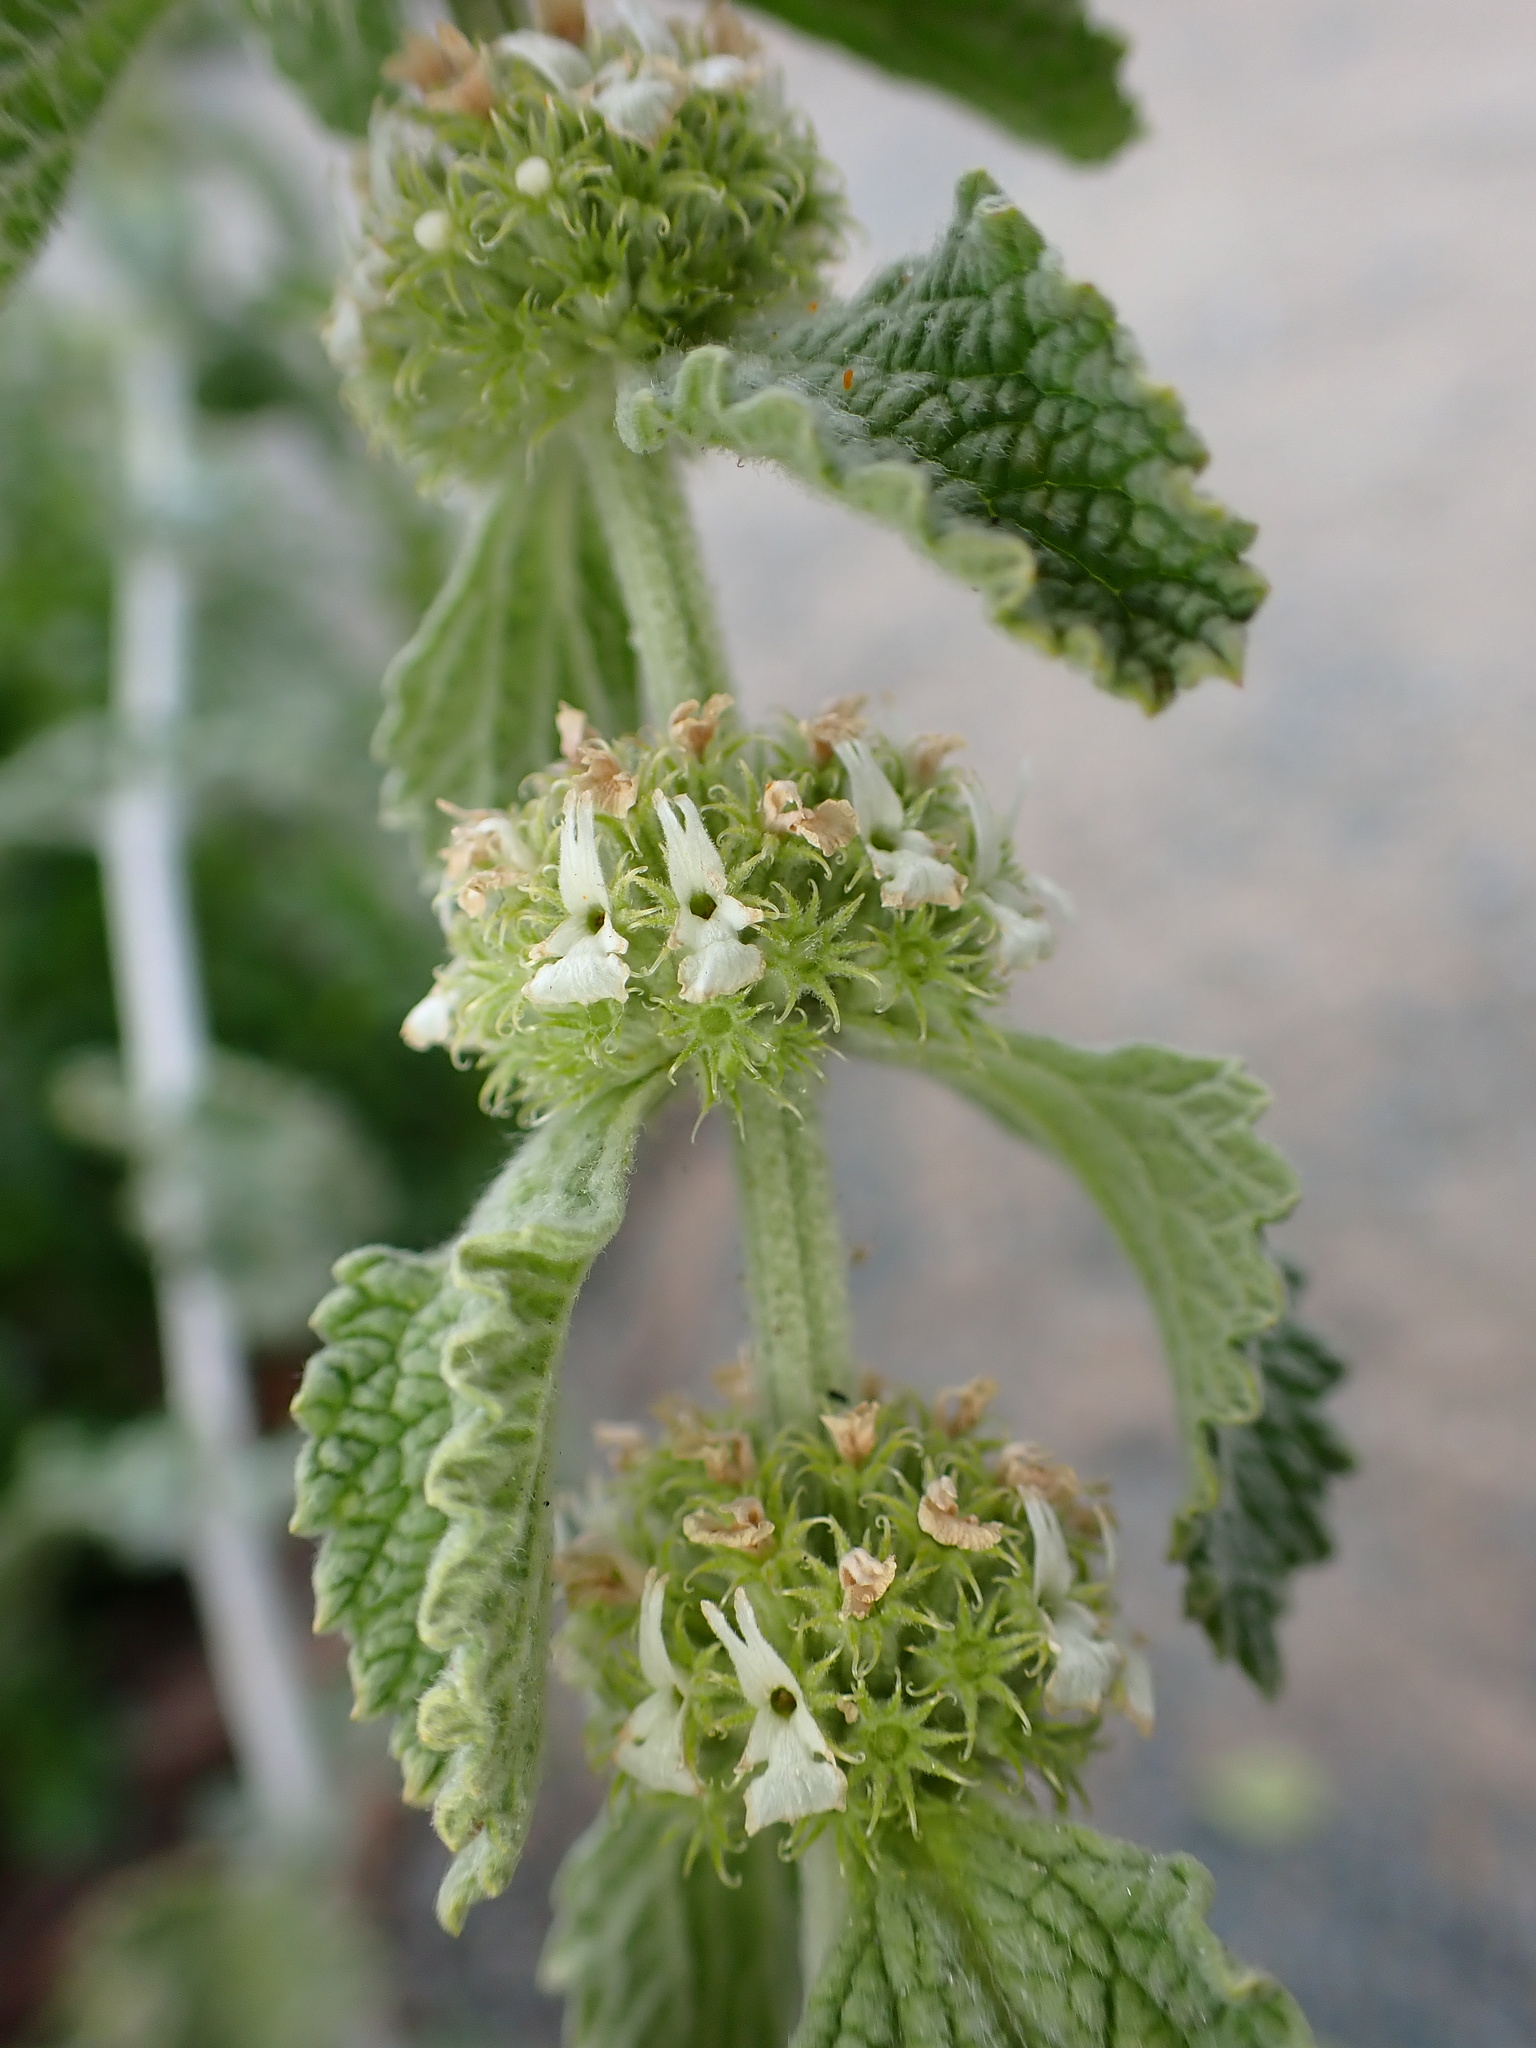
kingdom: Plantae
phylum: Tracheophyta
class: Magnoliopsida
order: Lamiales
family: Lamiaceae
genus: Marrubium
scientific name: Marrubium vulgare
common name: Horehound
